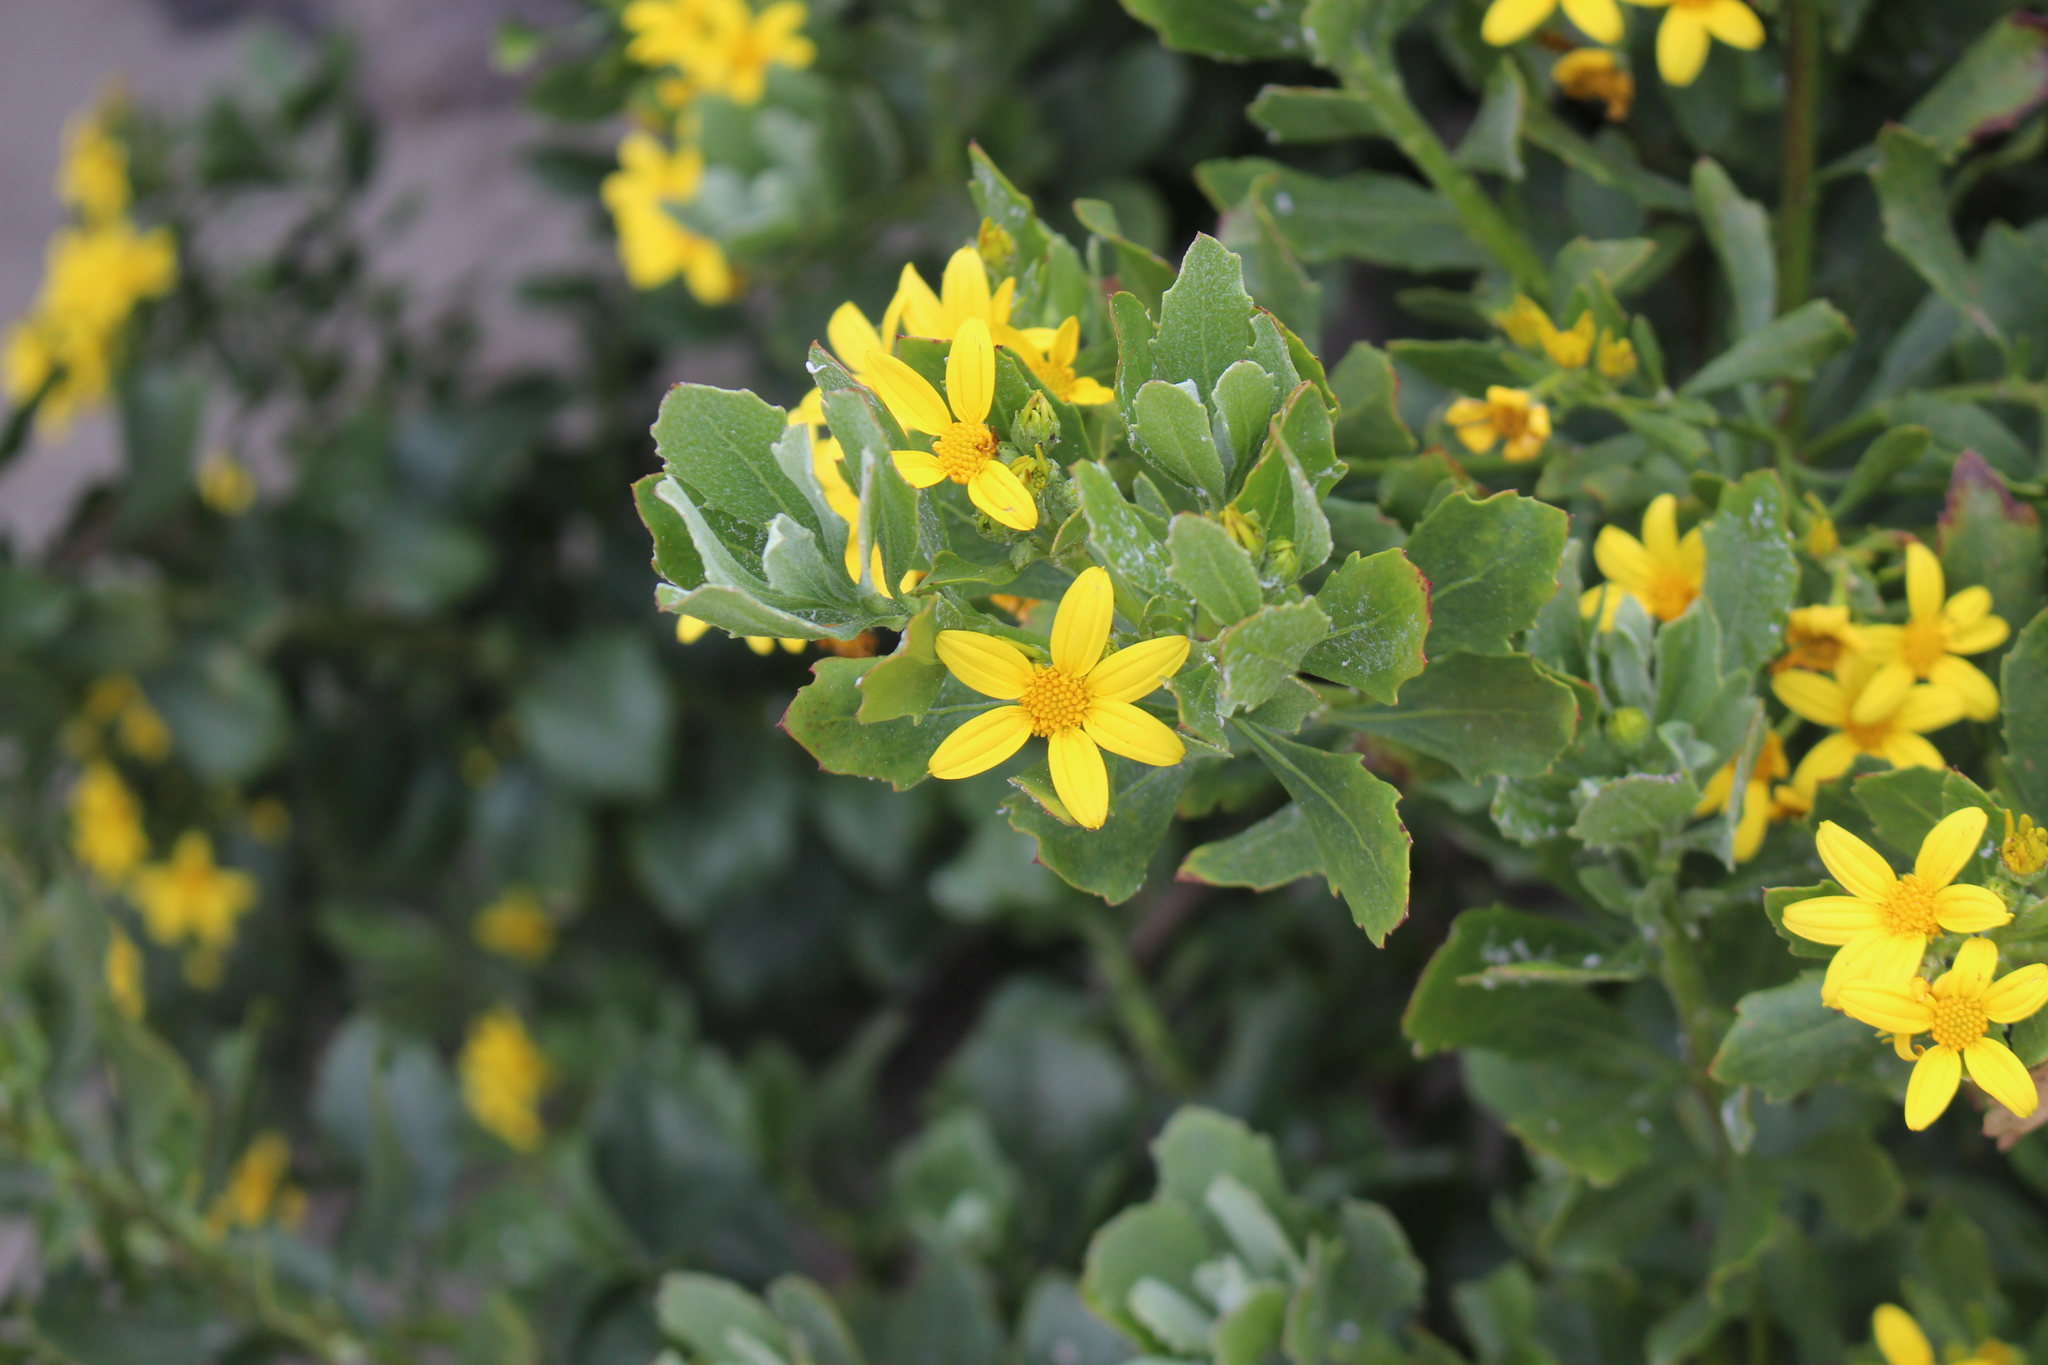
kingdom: Plantae
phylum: Tracheophyta
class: Magnoliopsida
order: Asterales
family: Asteraceae
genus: Osteospermum
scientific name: Osteospermum moniliferum
